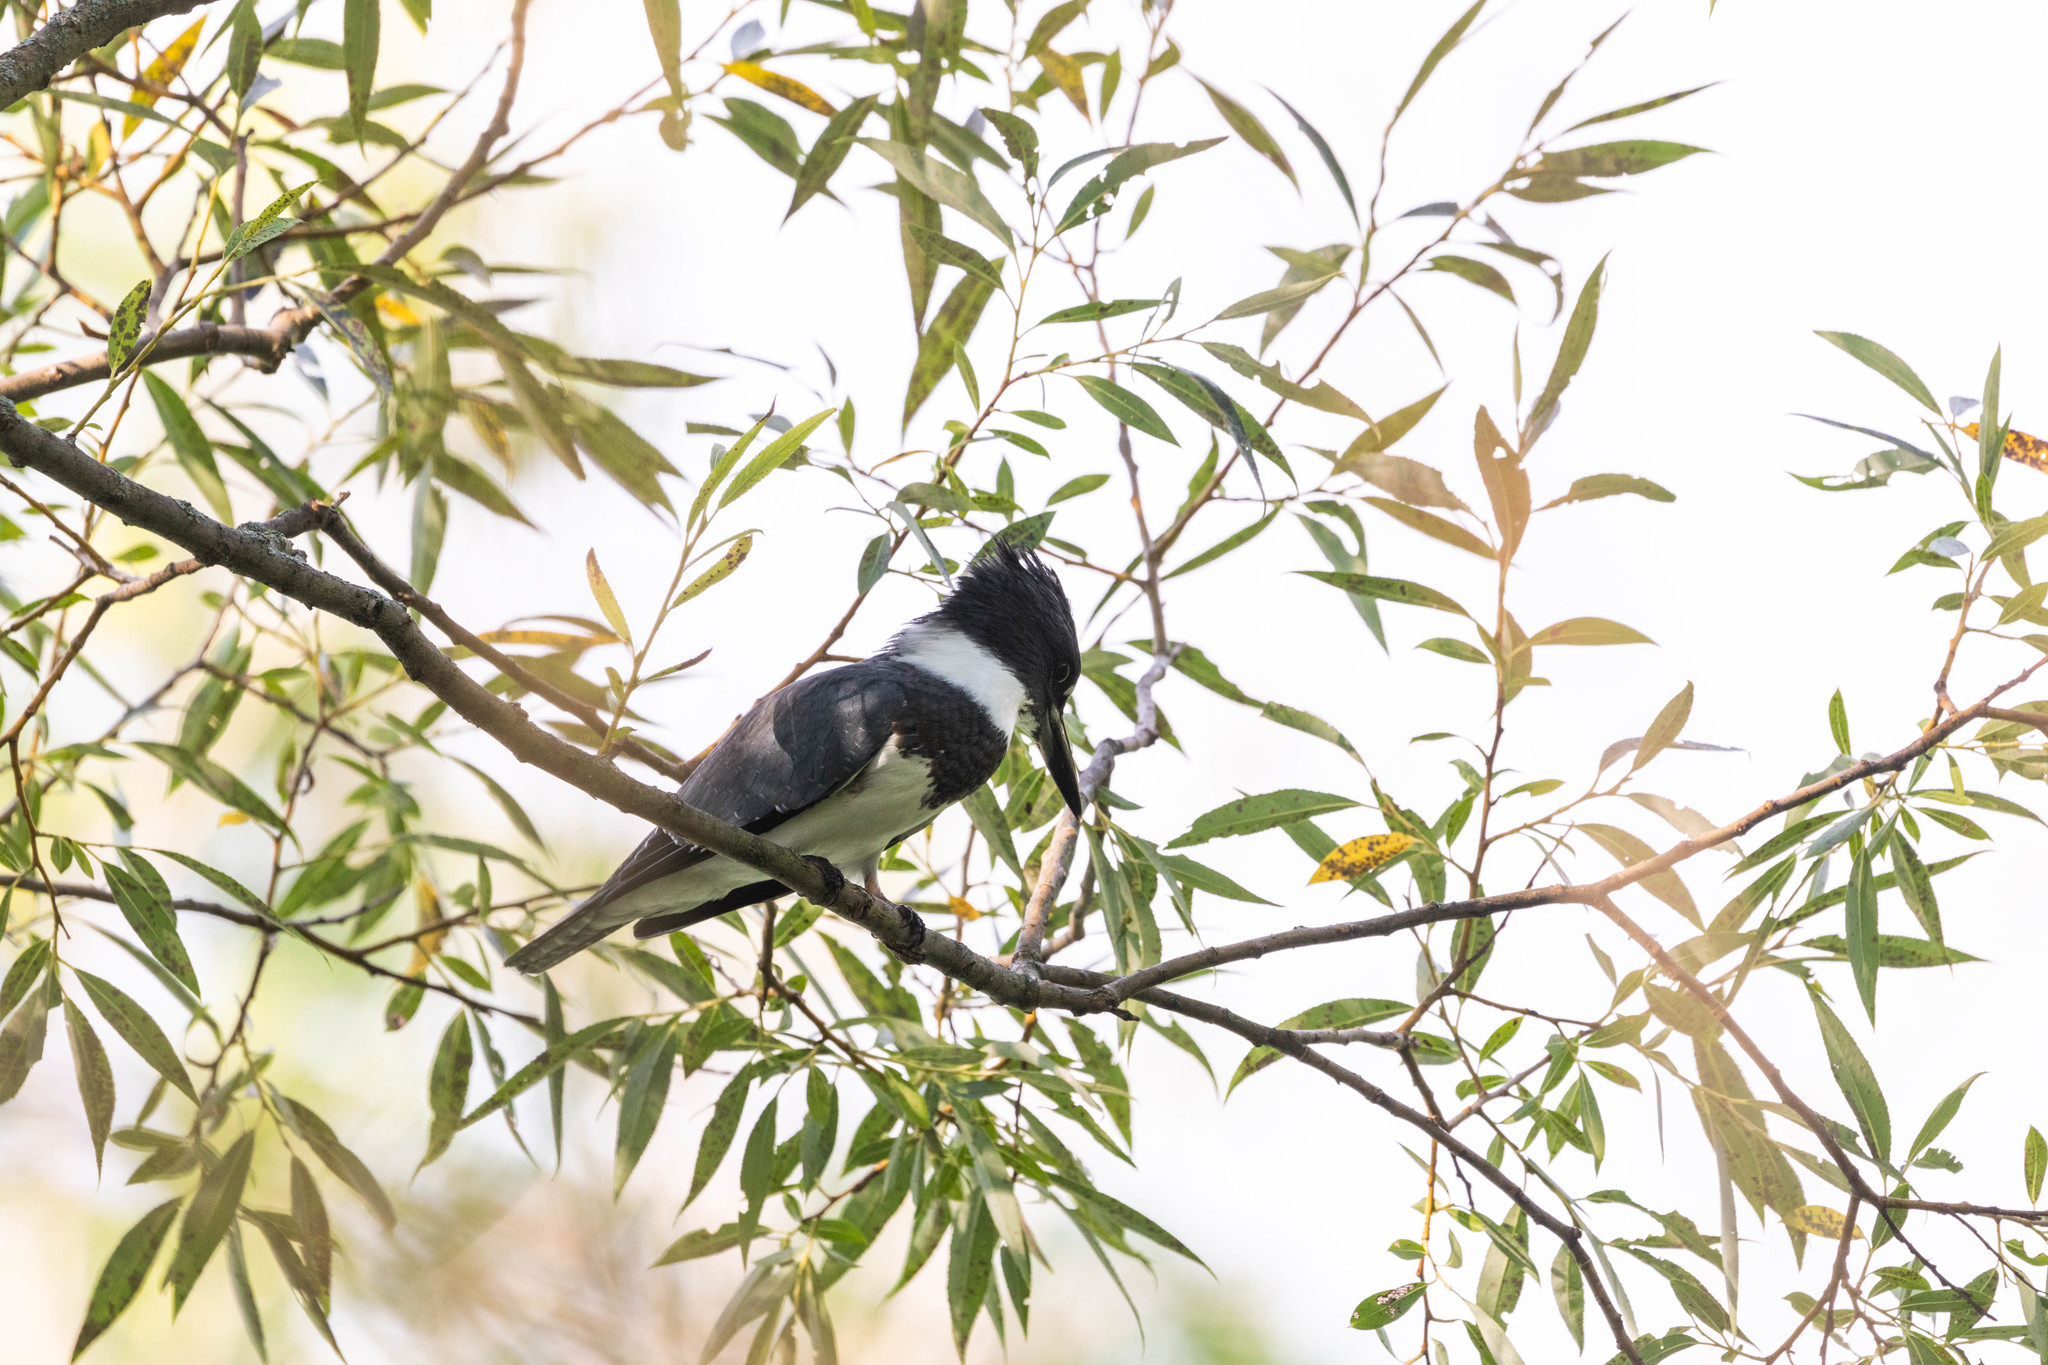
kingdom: Animalia
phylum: Chordata
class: Aves
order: Coraciiformes
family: Alcedinidae
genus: Megaceryle
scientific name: Megaceryle alcyon
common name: Belted kingfisher
